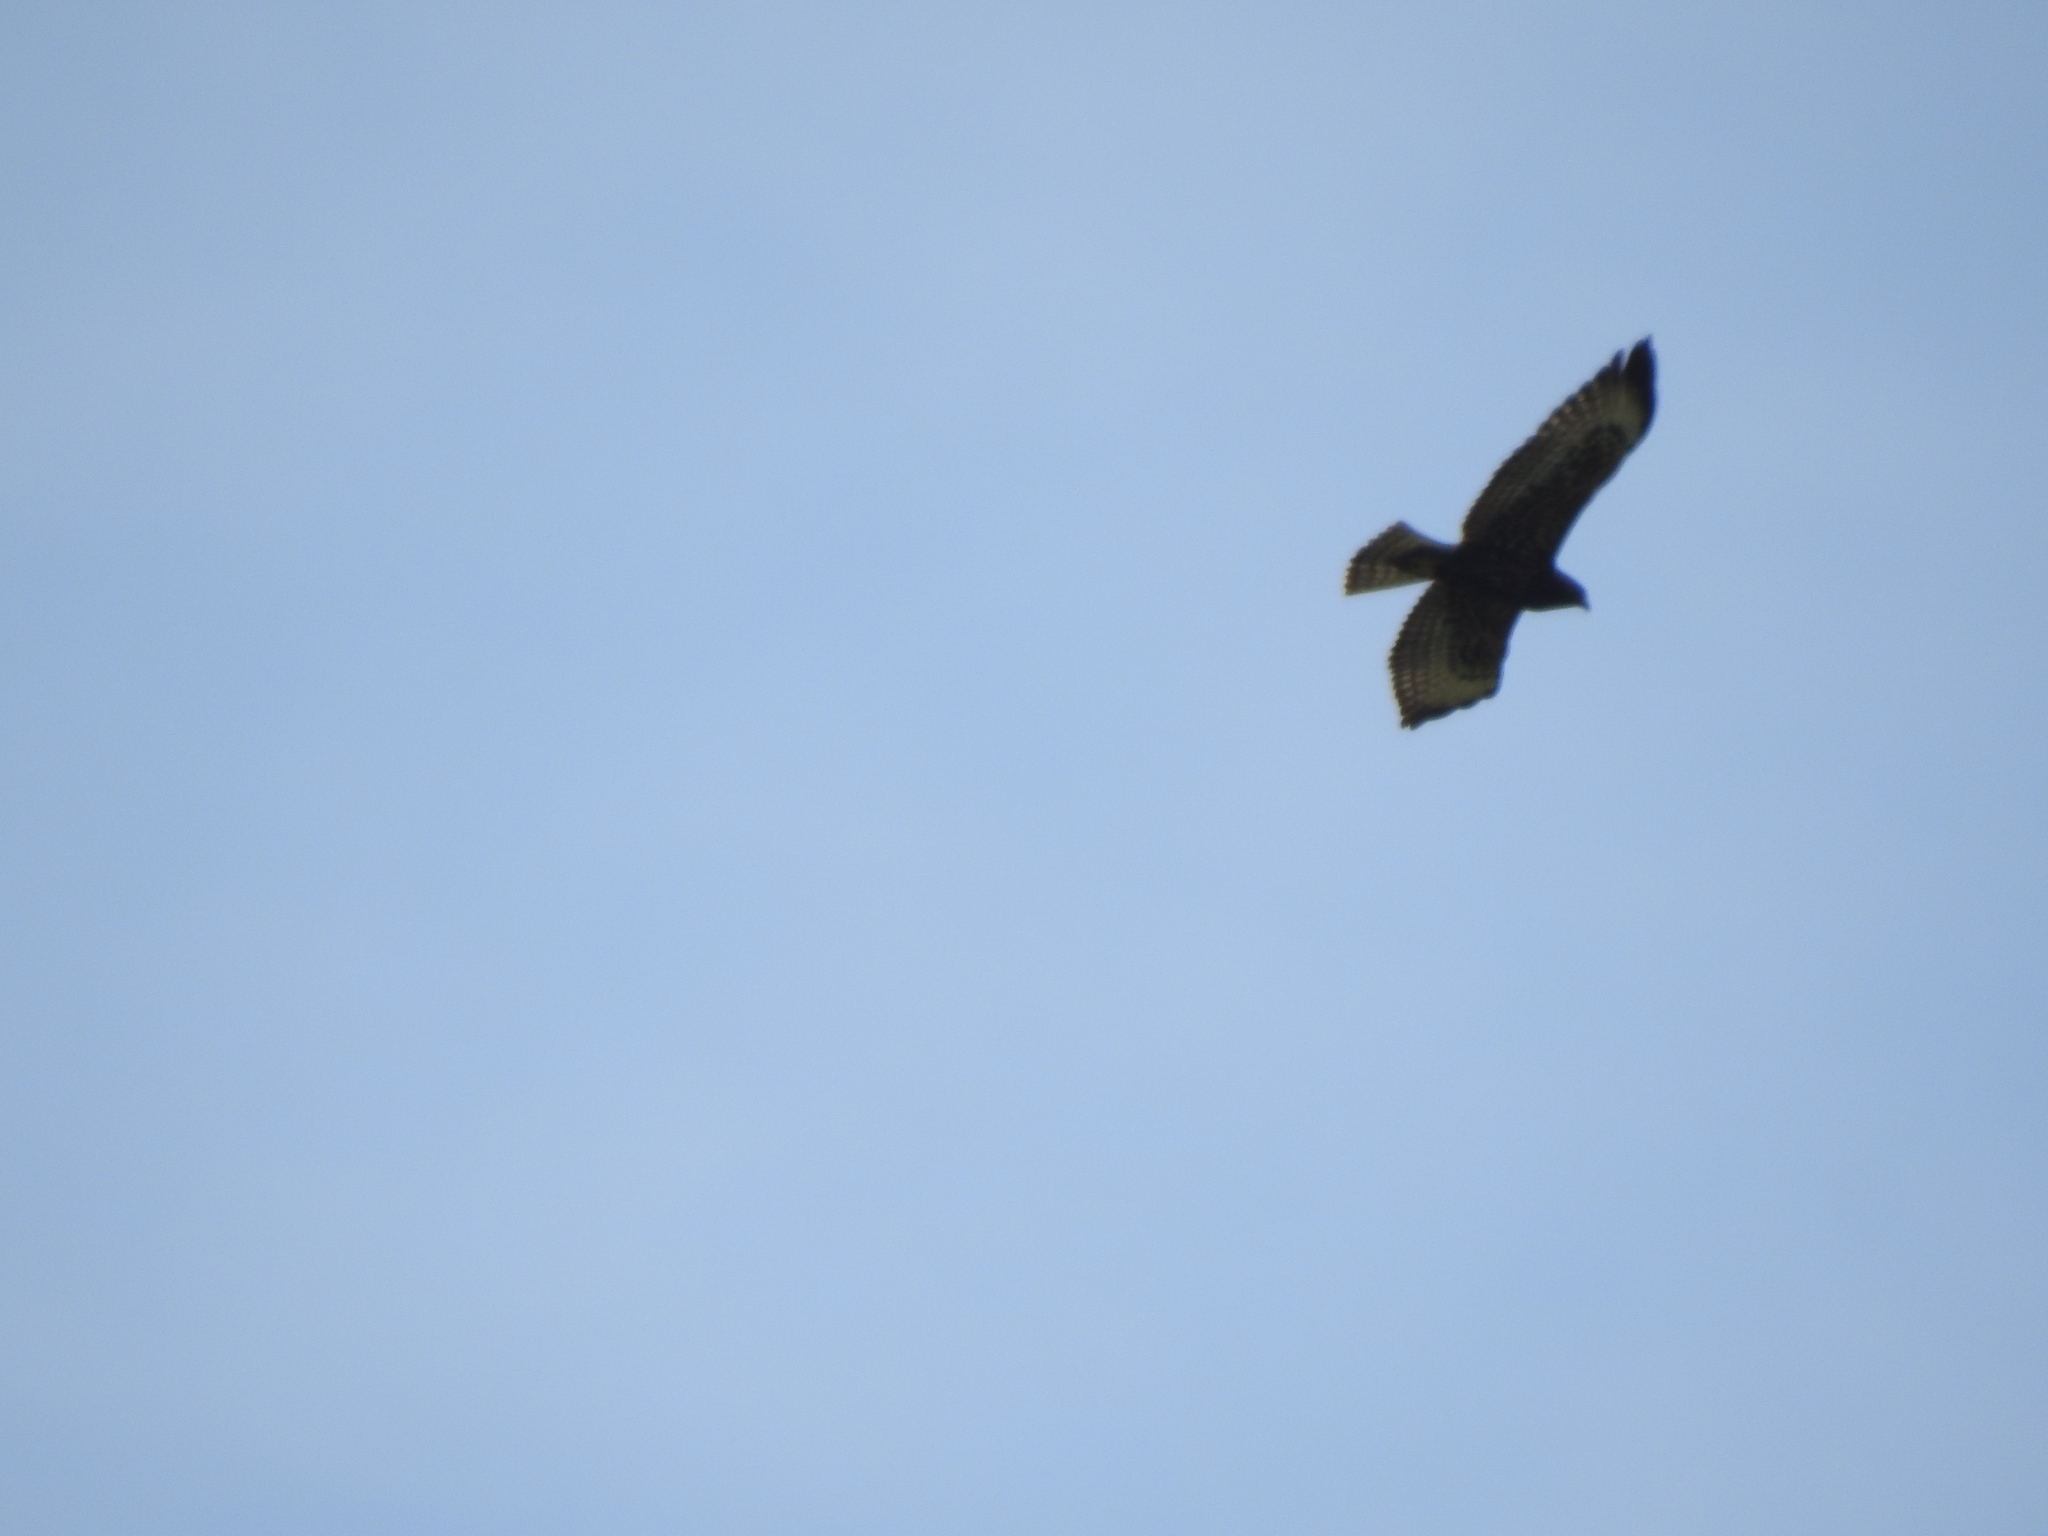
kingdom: Animalia
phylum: Chordata
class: Aves
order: Accipitriformes
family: Accipitridae
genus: Buteo
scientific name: Buteo brachyurus
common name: Short-tailed hawk
